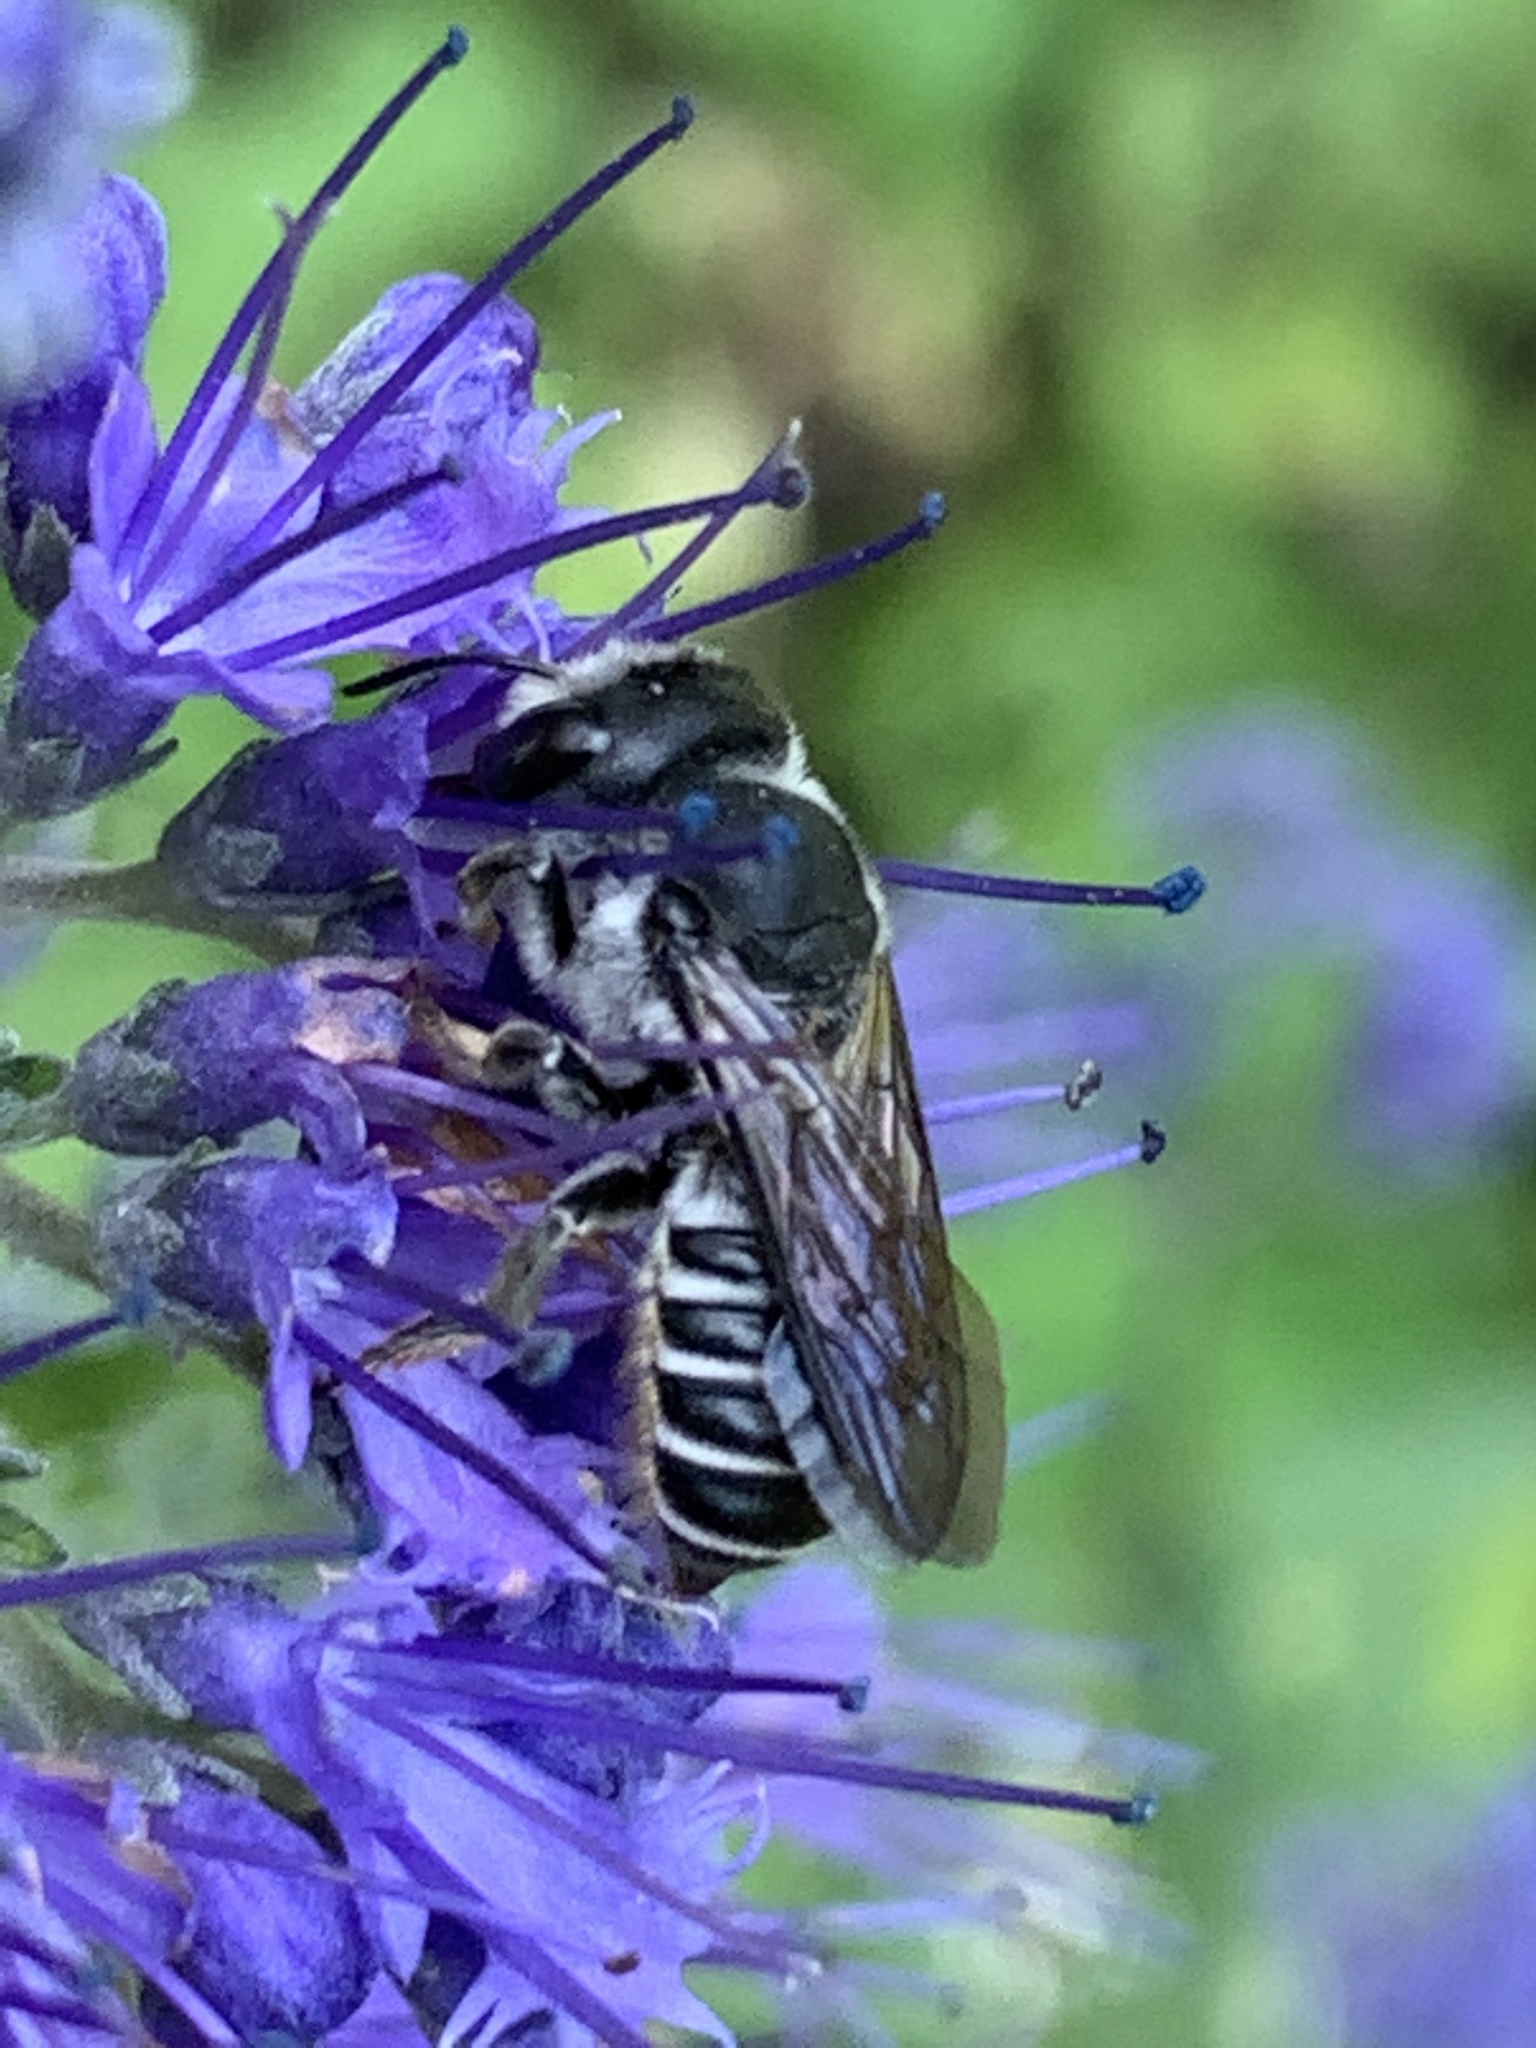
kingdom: Animalia
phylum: Arthropoda
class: Insecta
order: Hymenoptera
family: Megachilidae
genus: Megachile
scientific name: Megachile montivaga
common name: Silver-tailed petalcutter bee
